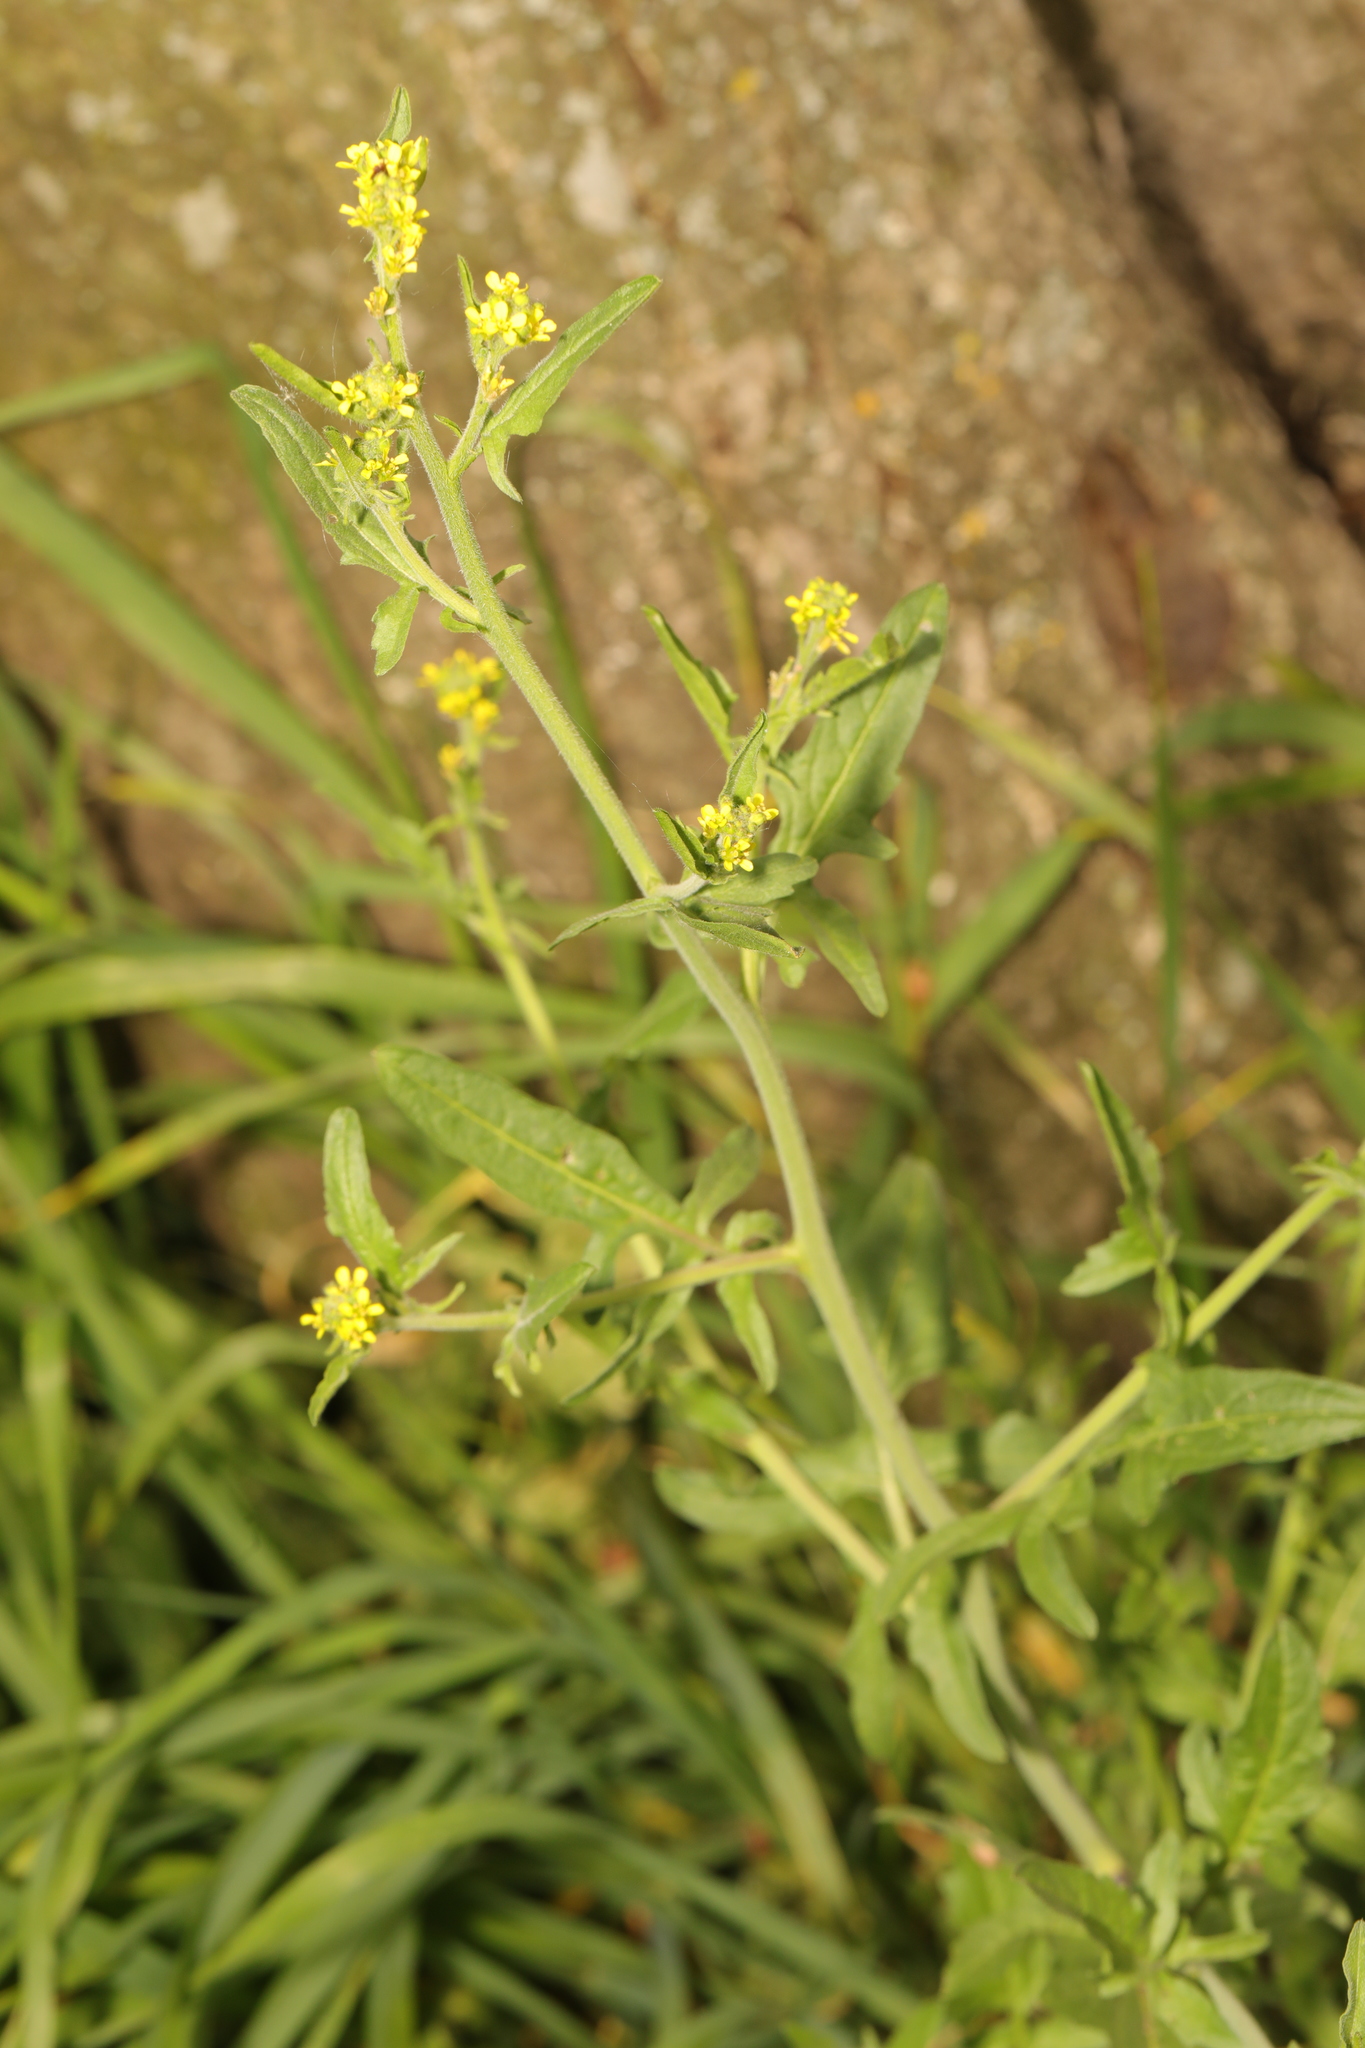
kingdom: Plantae
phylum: Tracheophyta
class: Magnoliopsida
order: Brassicales
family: Brassicaceae
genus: Sisymbrium
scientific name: Sisymbrium officinale
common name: Hedge mustard
